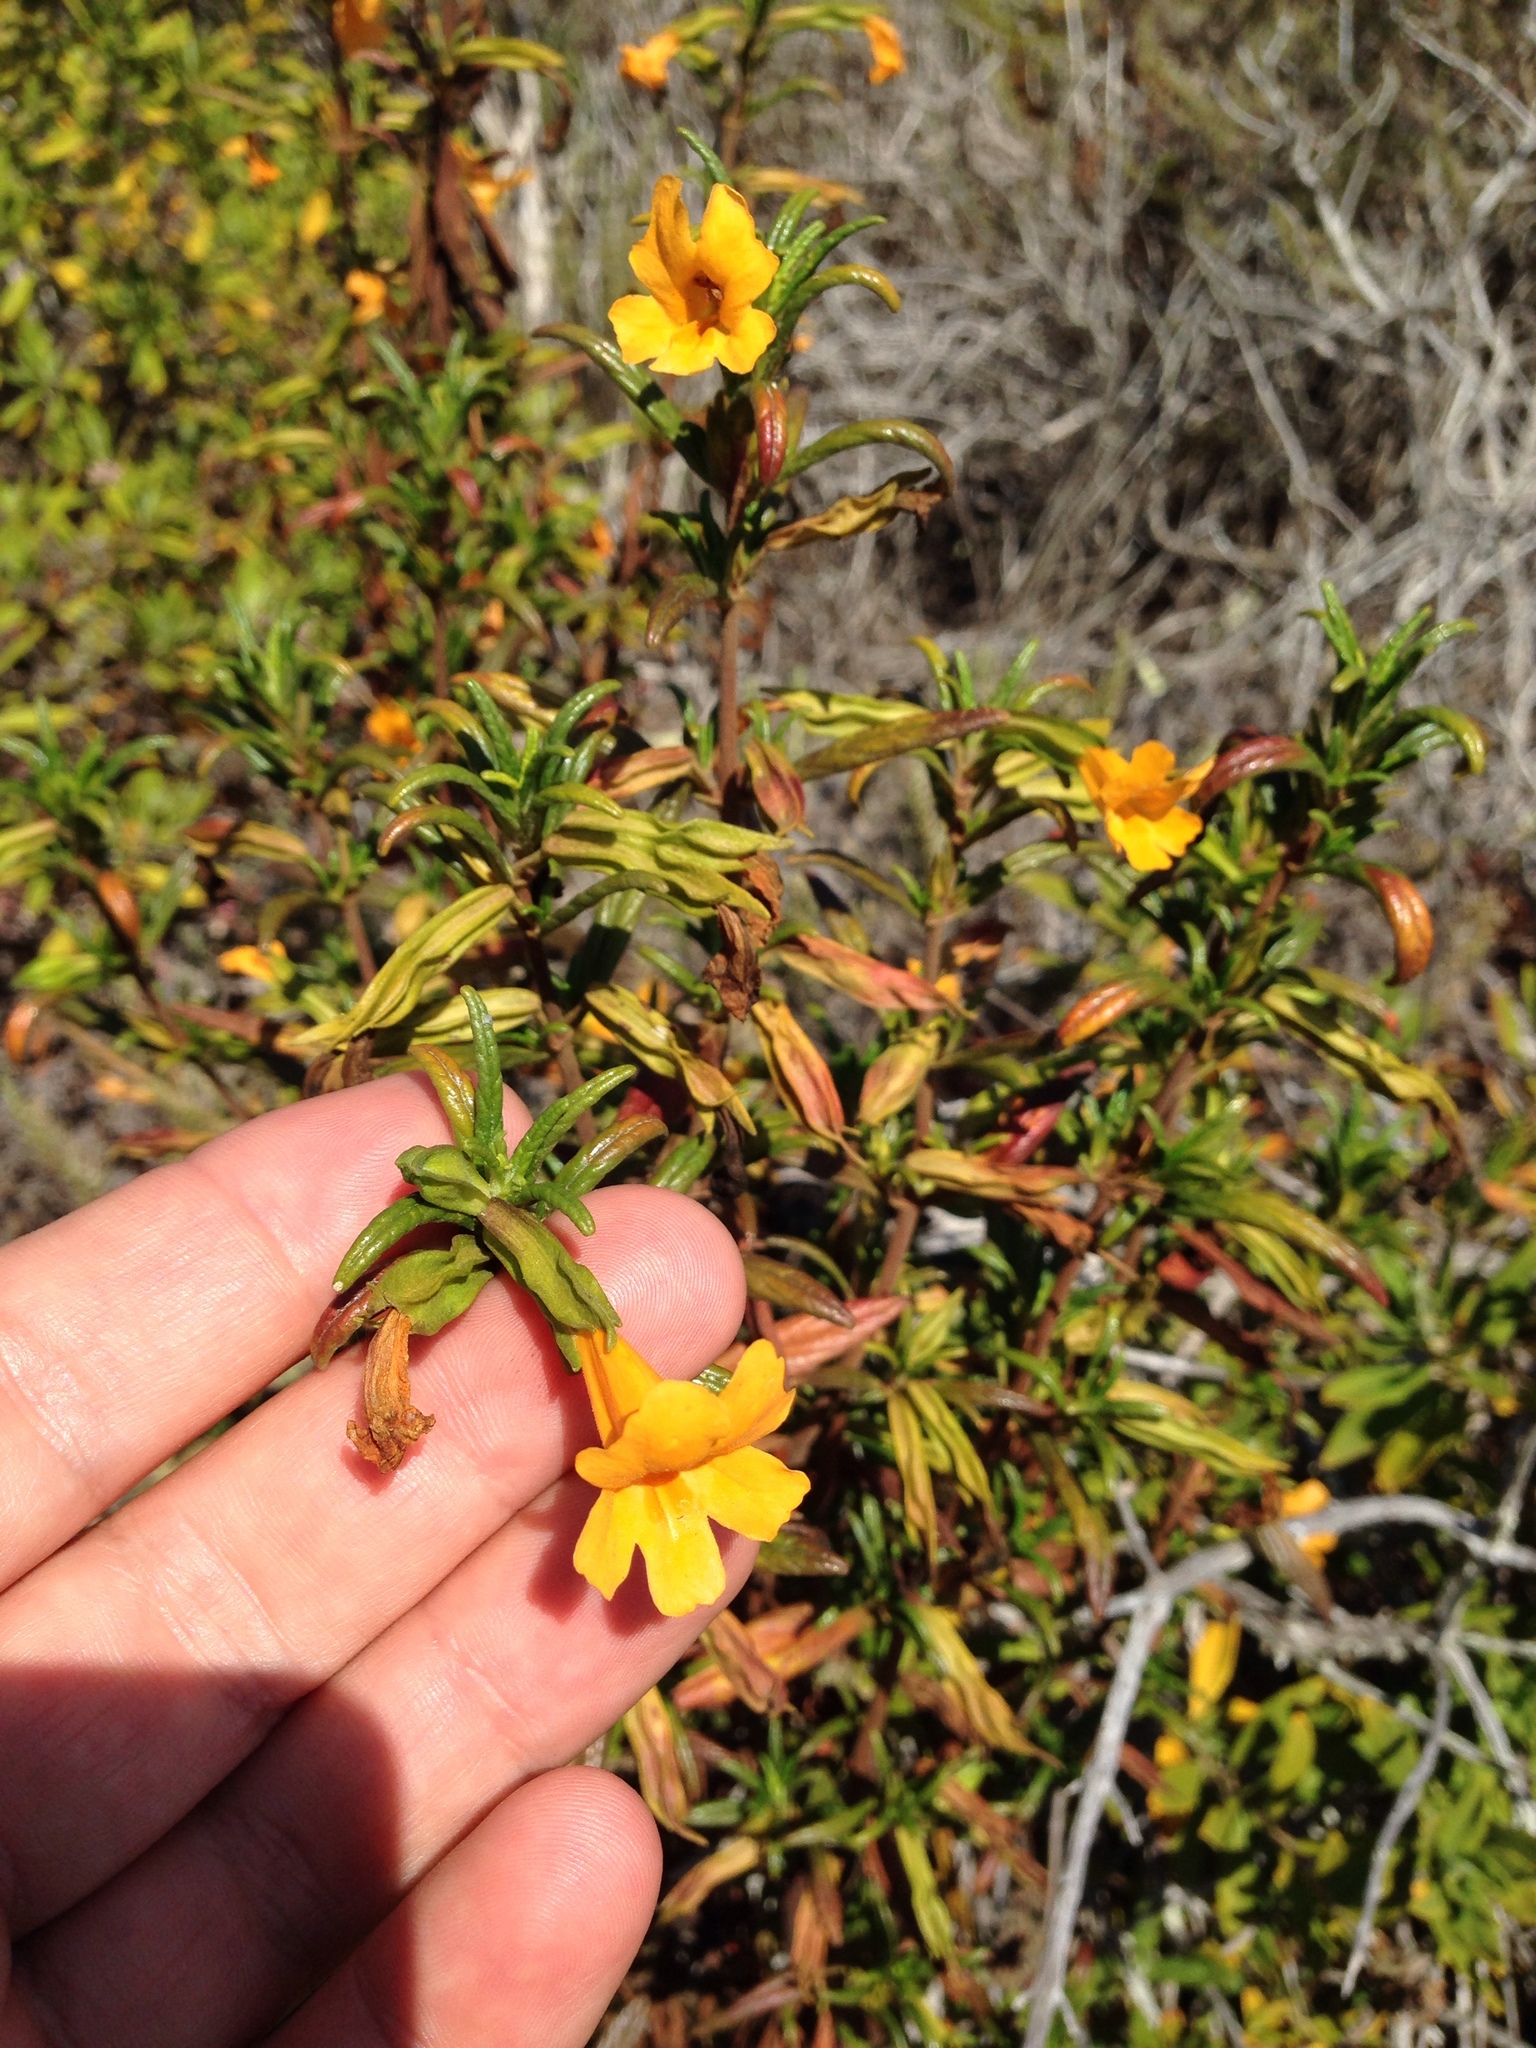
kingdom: Plantae
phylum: Tracheophyta
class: Magnoliopsida
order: Lamiales
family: Phrymaceae
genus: Diplacus
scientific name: Diplacus aurantiacus
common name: Bush monkey-flower
